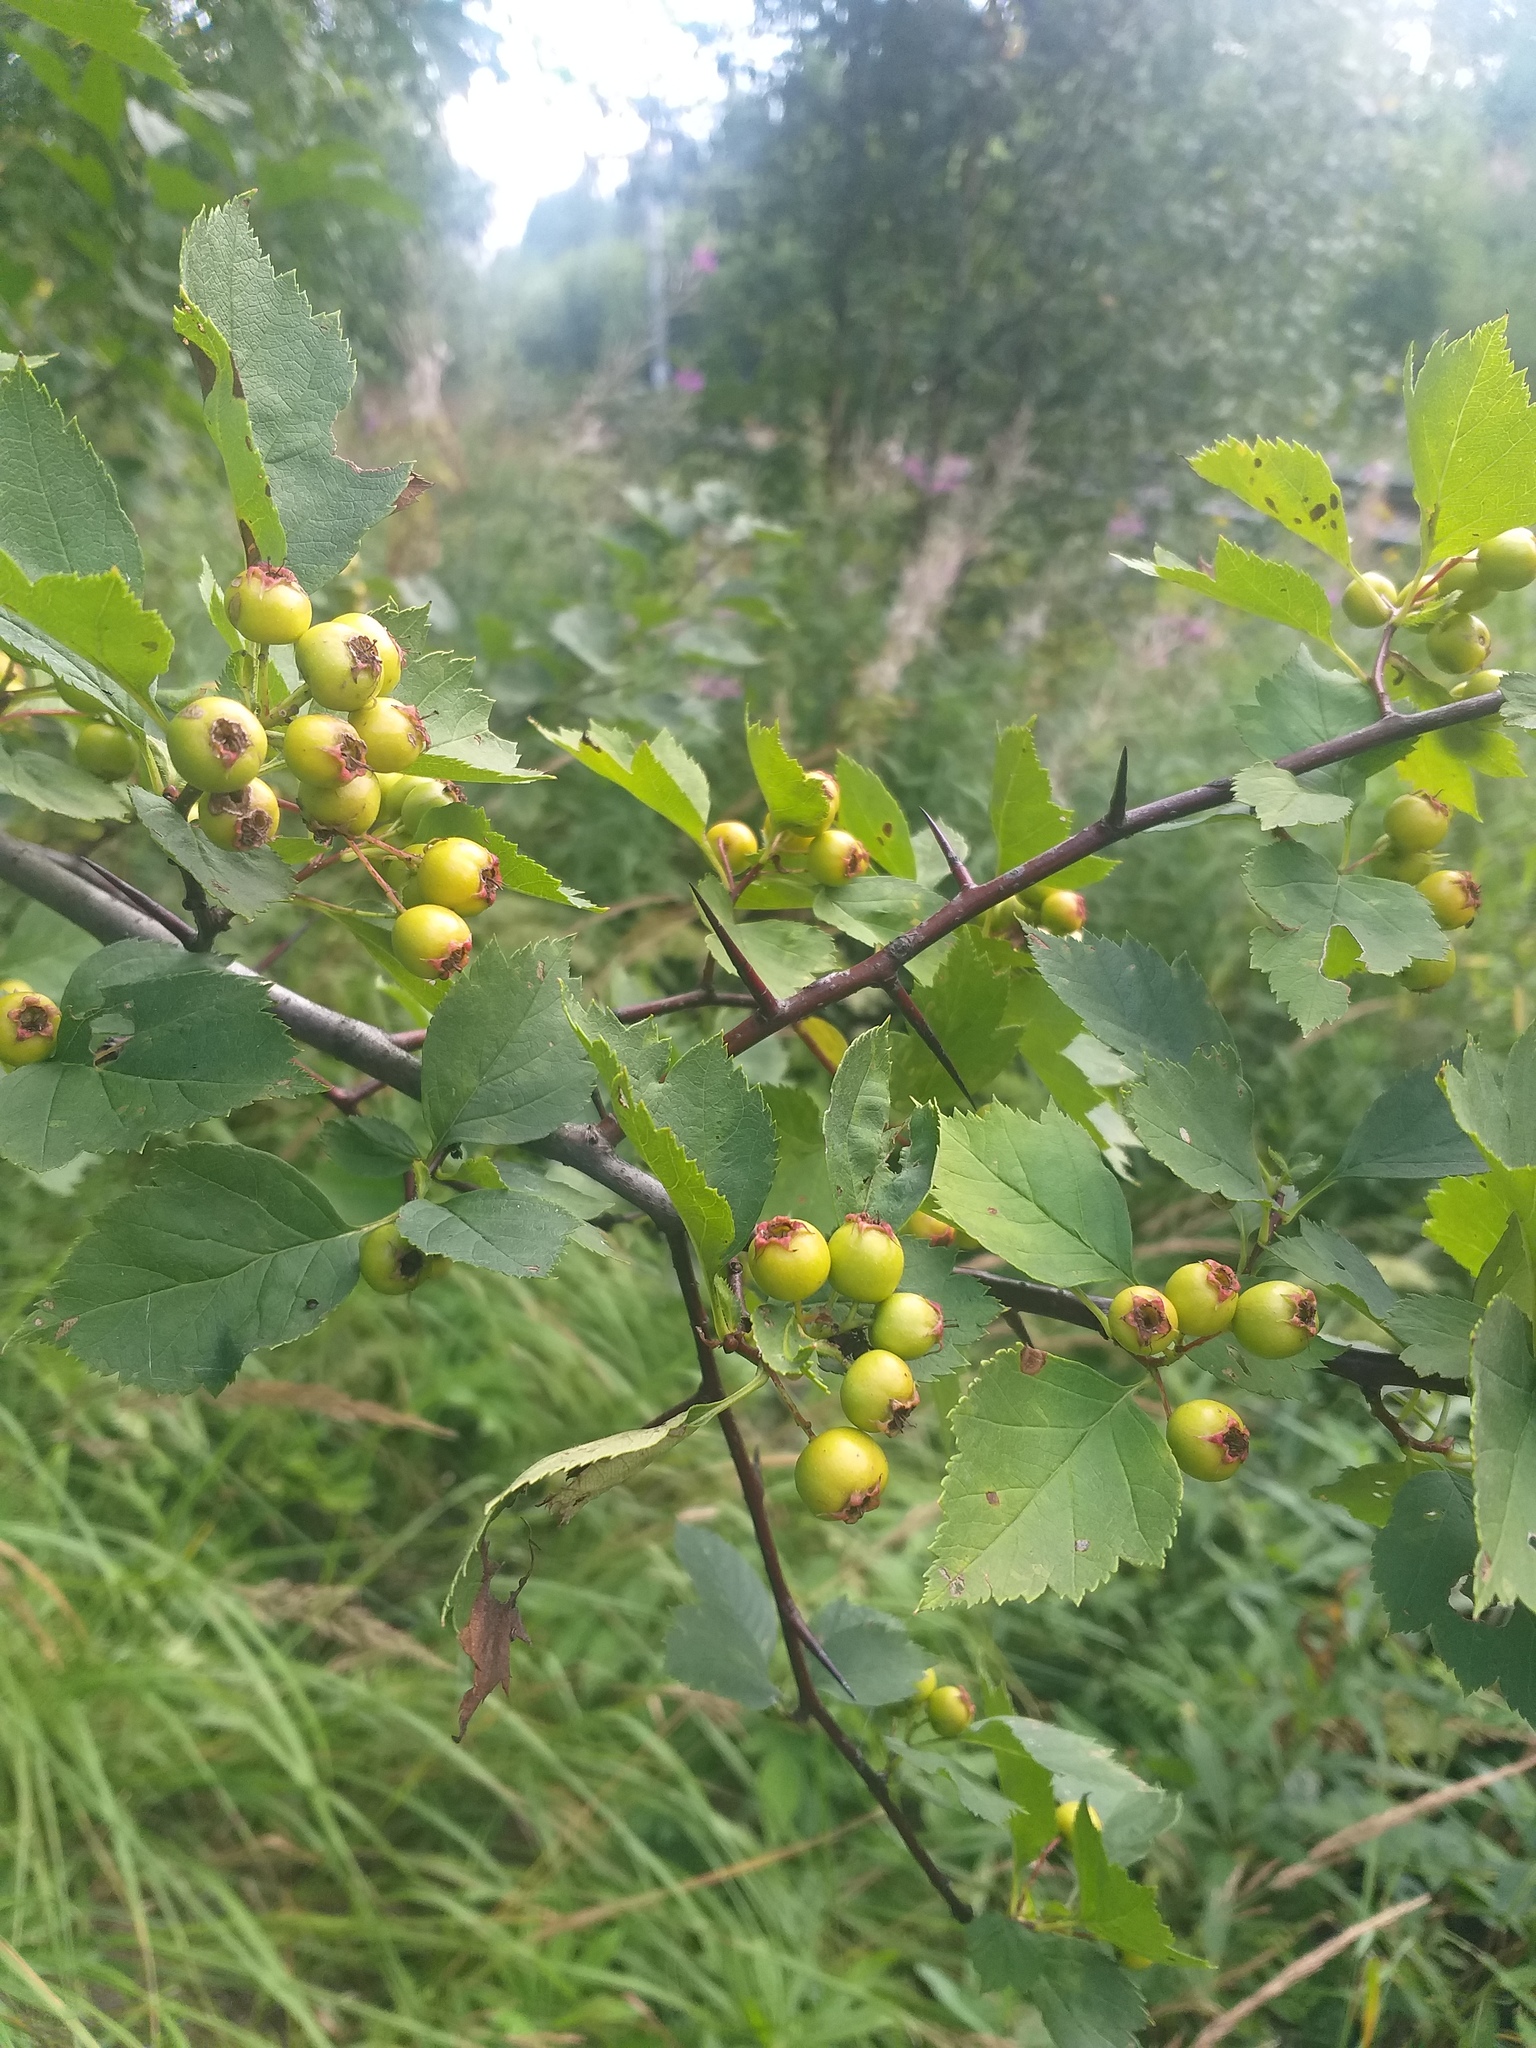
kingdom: Plantae
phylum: Tracheophyta
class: Magnoliopsida
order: Rosales
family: Rosaceae
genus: Crataegus
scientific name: Crataegus chlorocarpa
